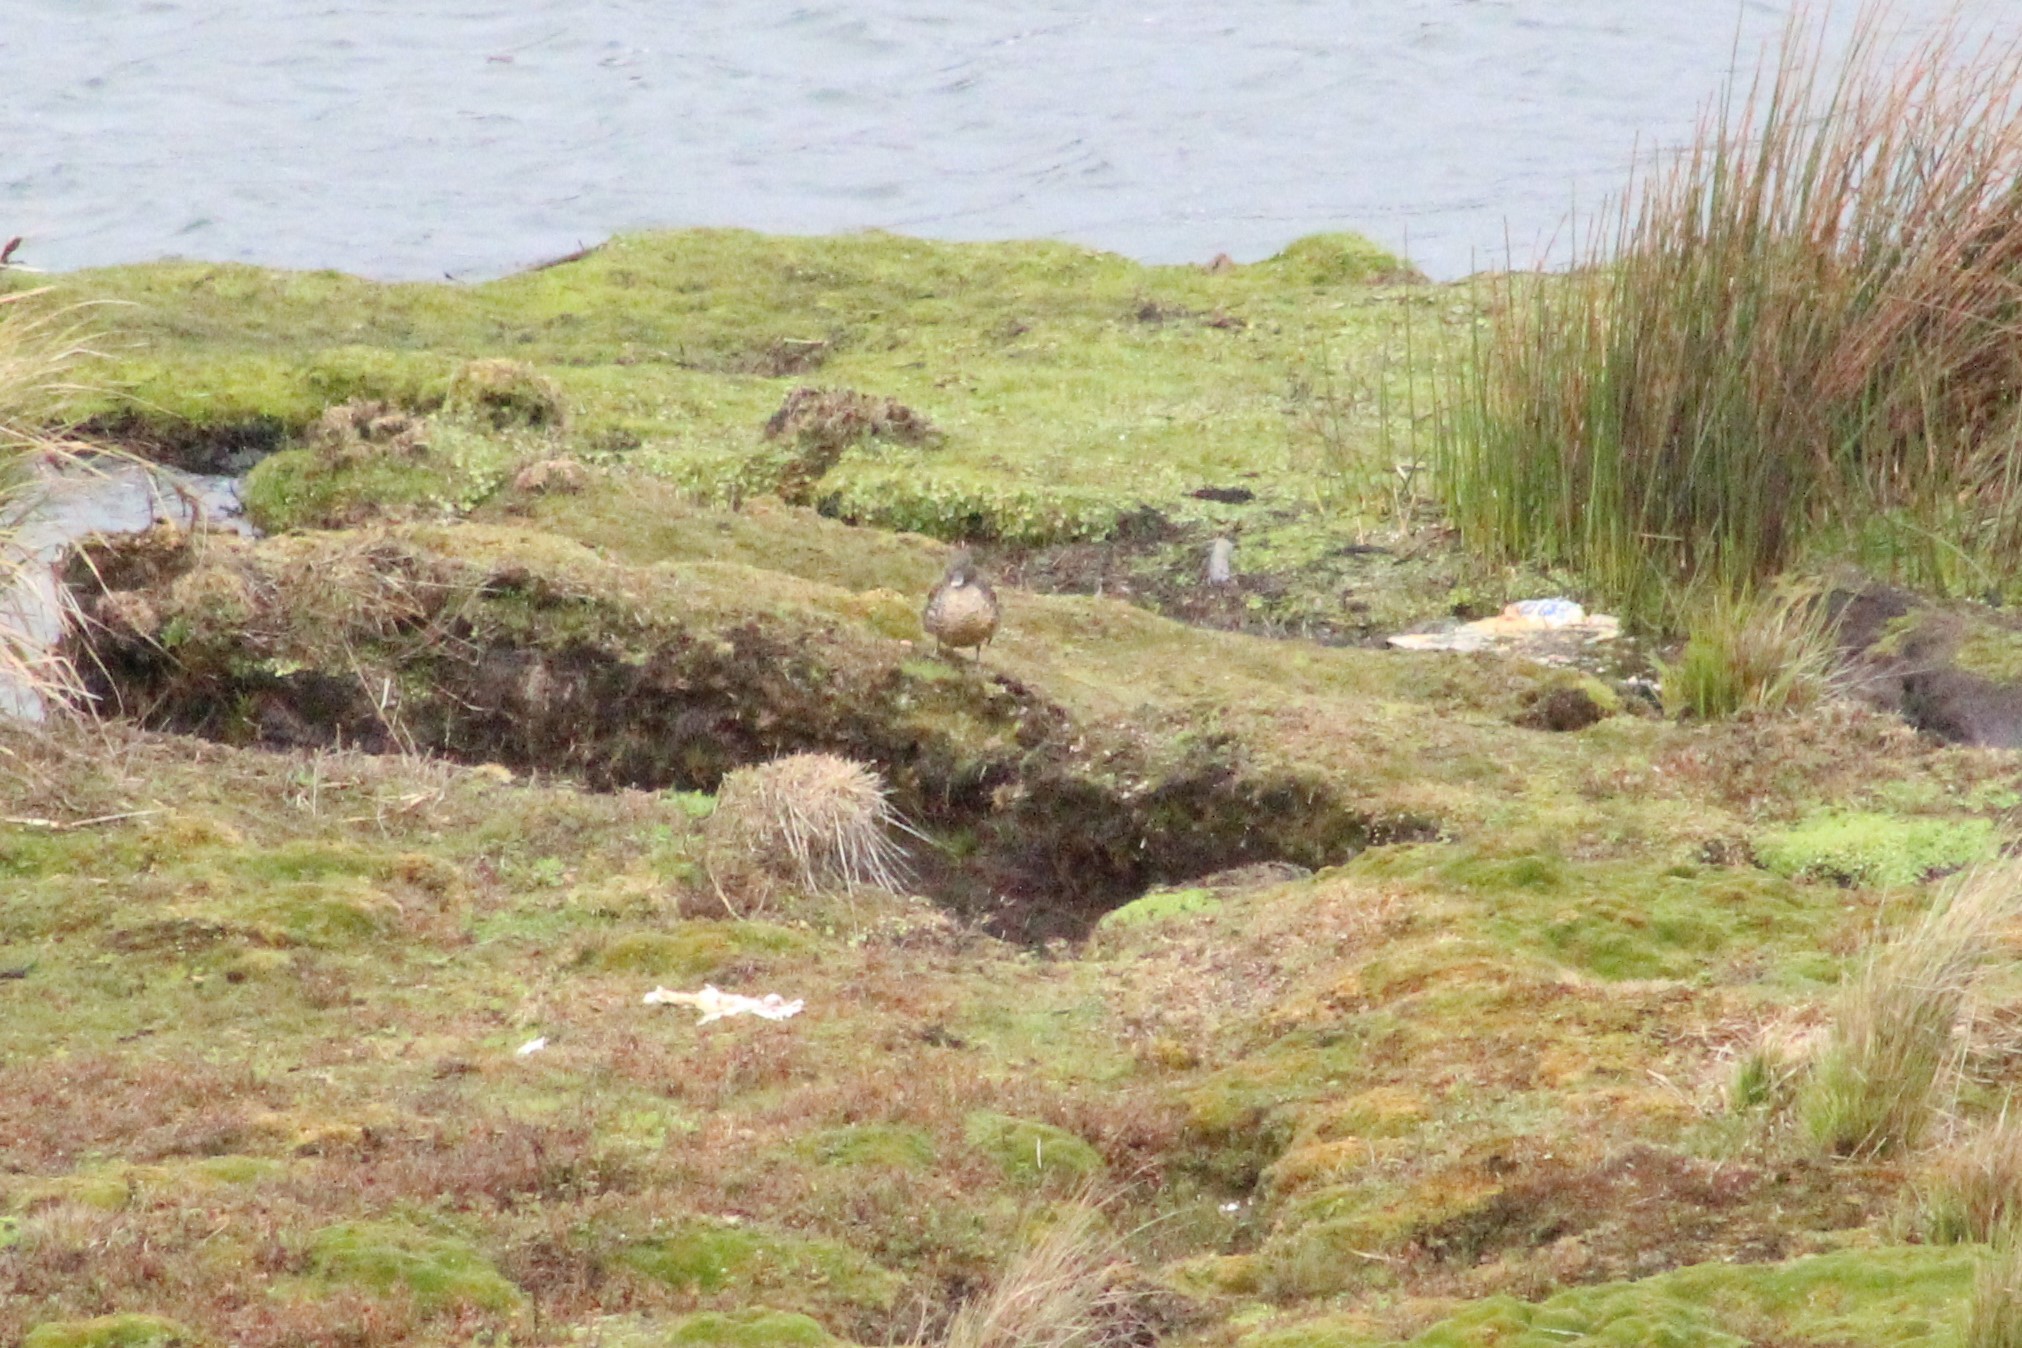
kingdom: Animalia
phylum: Chordata
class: Aves
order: Anseriformes
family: Anatidae
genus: Anas
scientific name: Anas andium
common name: Andean teal
